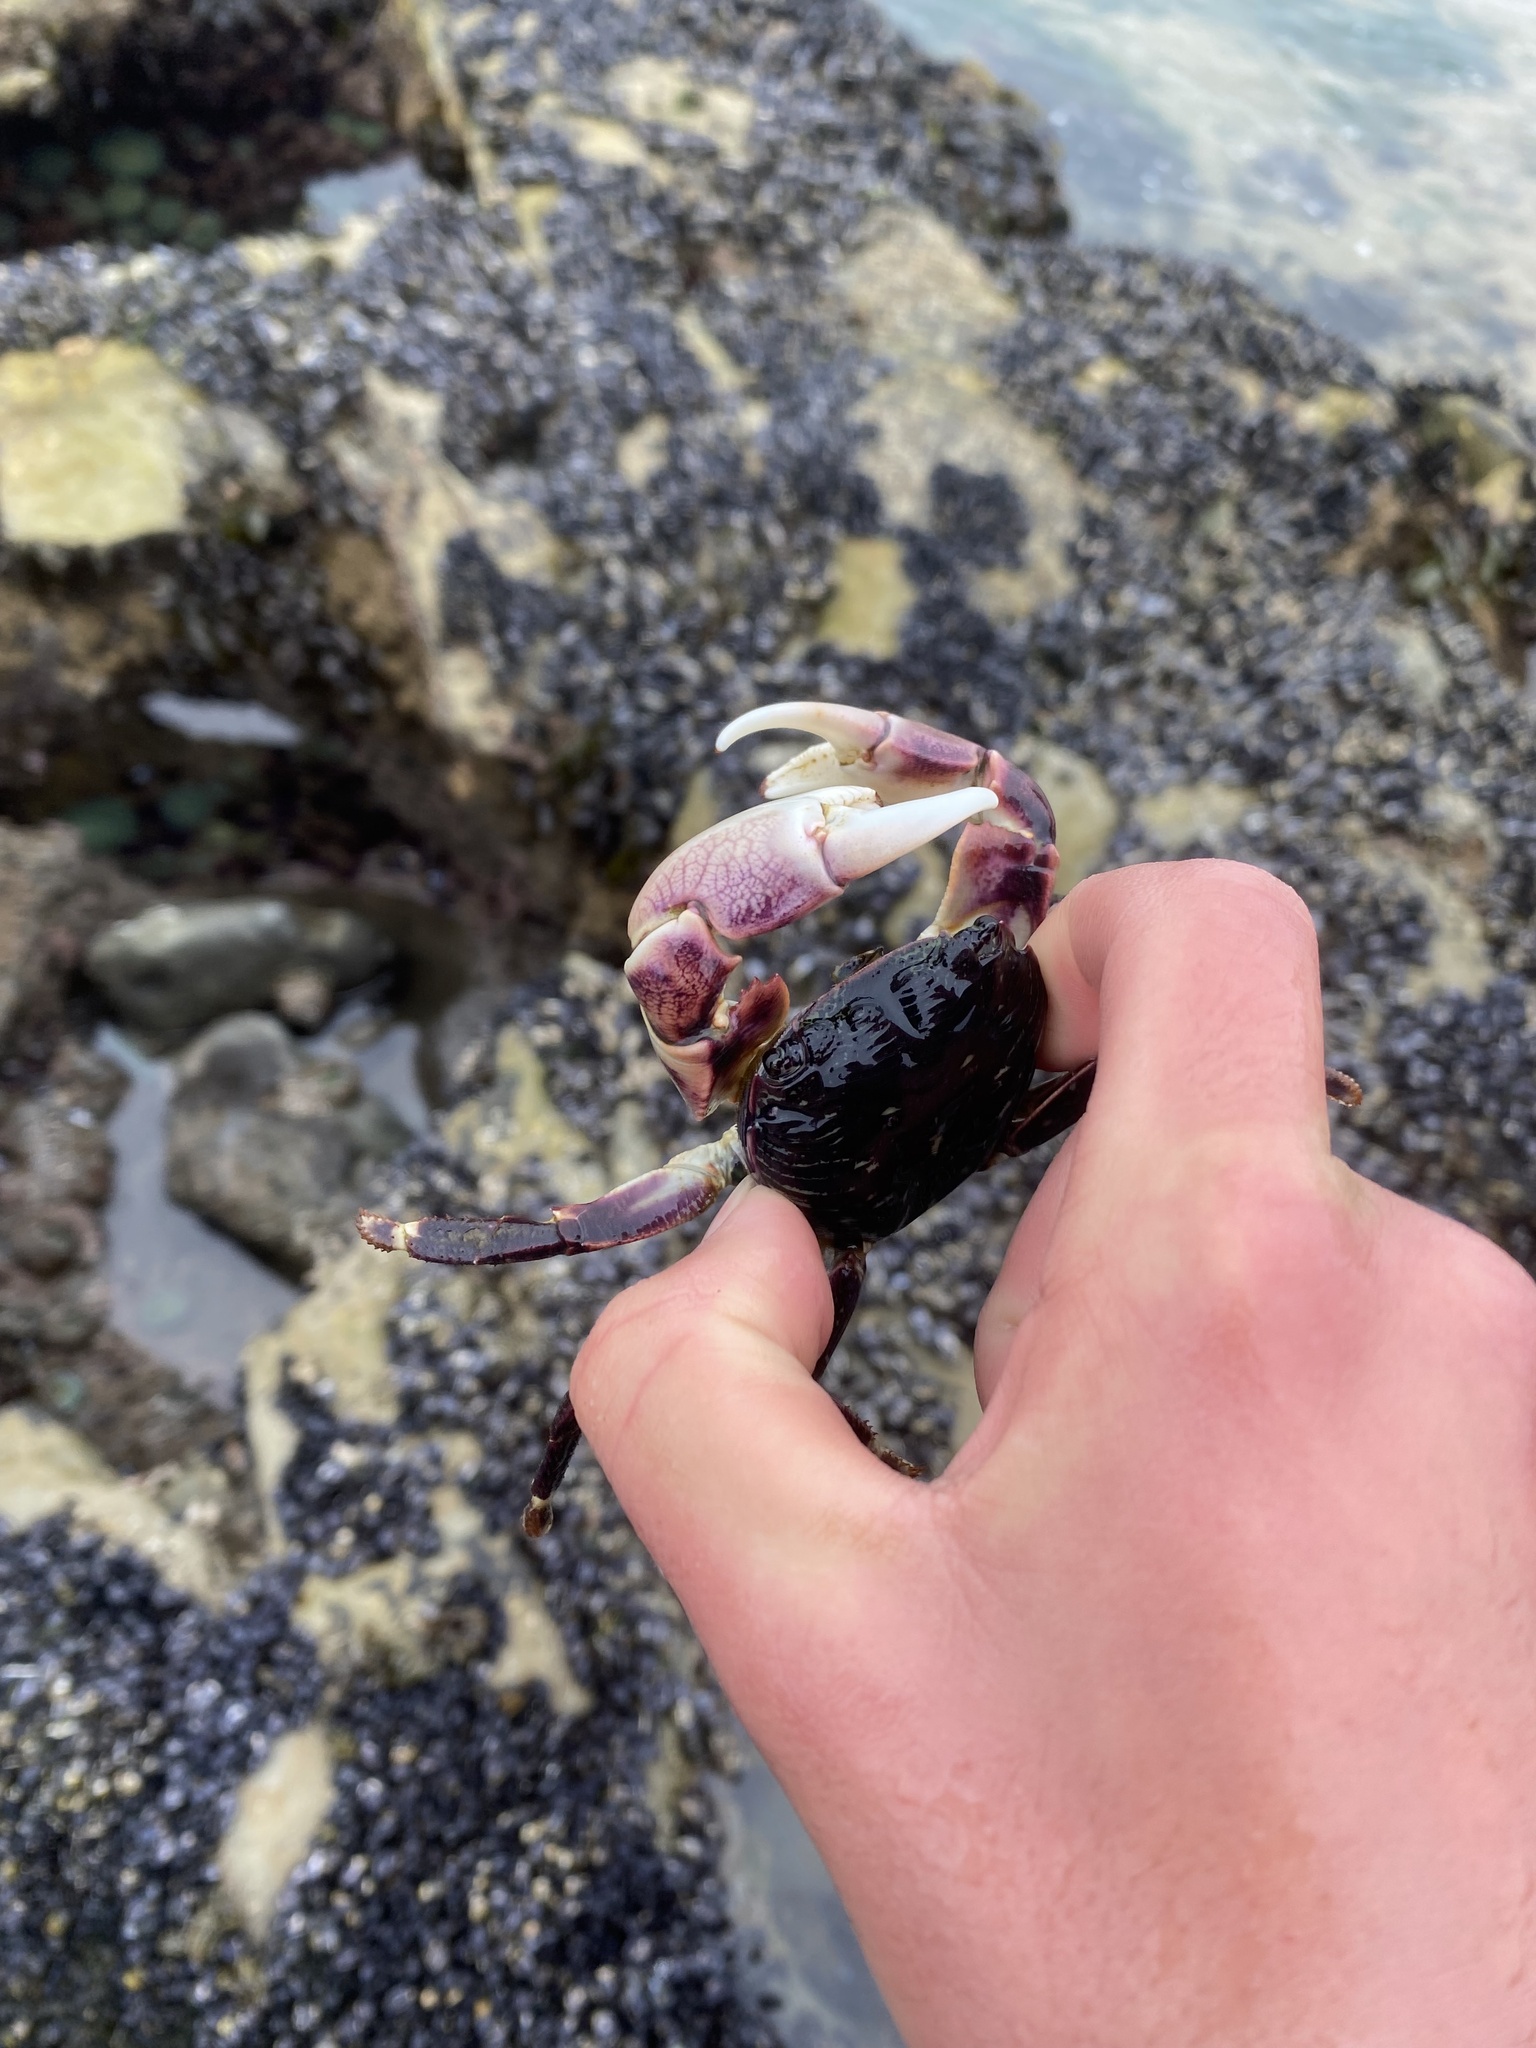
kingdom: Animalia
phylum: Arthropoda
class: Malacostraca
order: Decapoda
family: Grapsidae
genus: Pachygrapsus
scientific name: Pachygrapsus crassipes
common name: Striped shore crab
